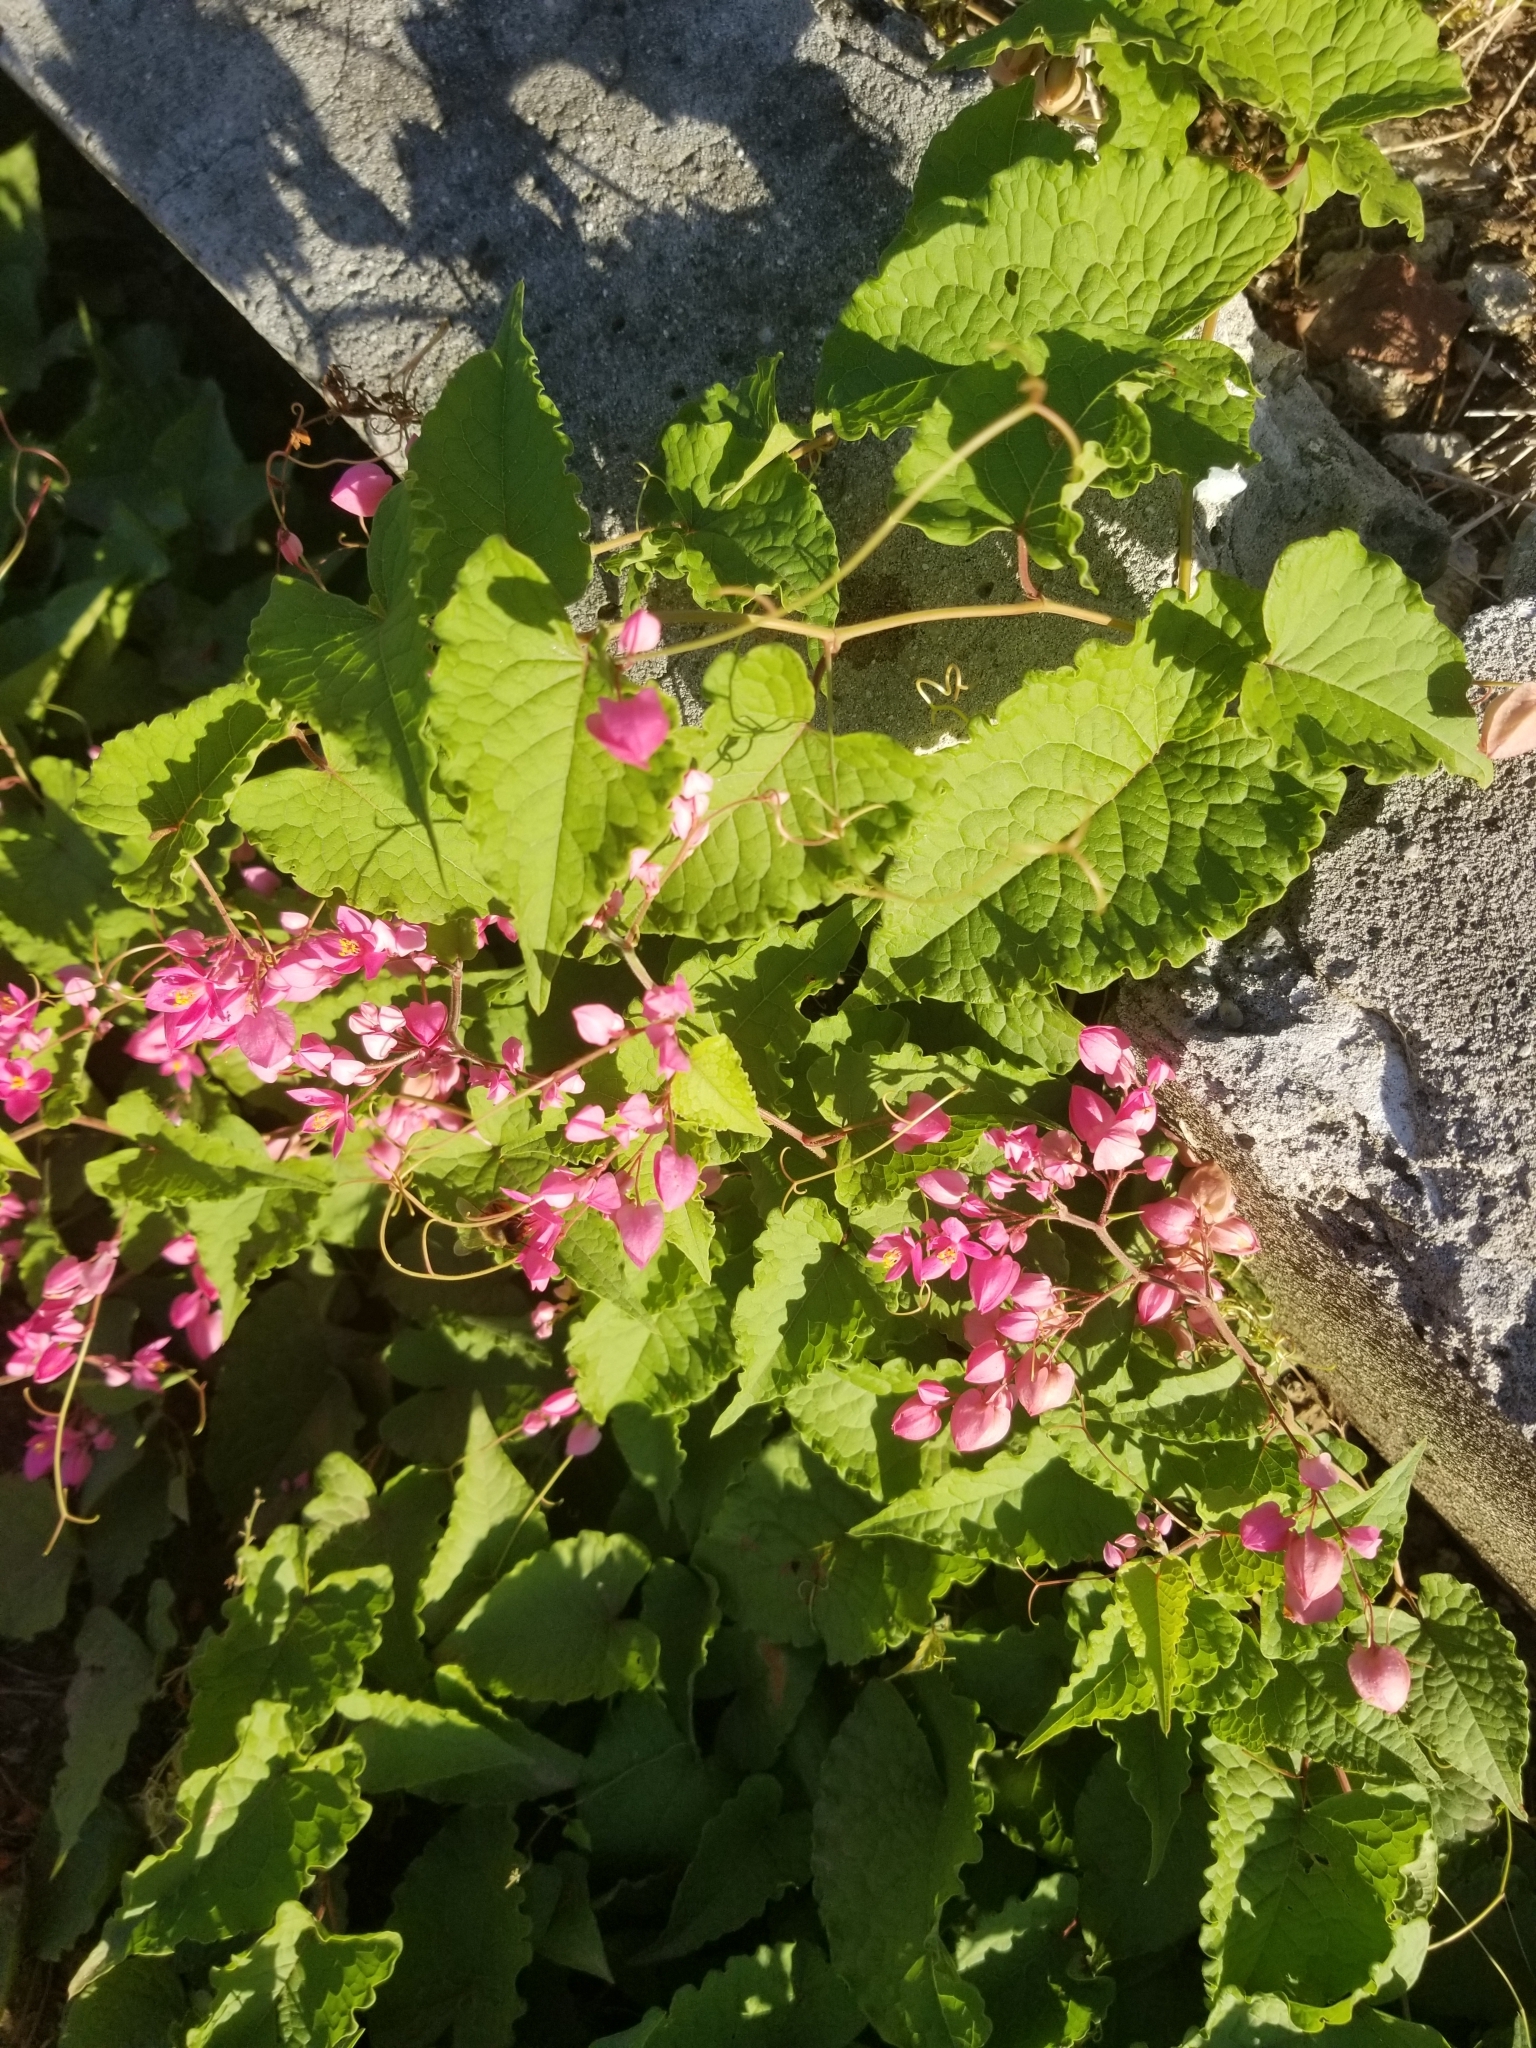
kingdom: Plantae
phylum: Tracheophyta
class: Magnoliopsida
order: Caryophyllales
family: Polygonaceae
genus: Antigonon
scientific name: Antigonon leptopus
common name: Coral vine
